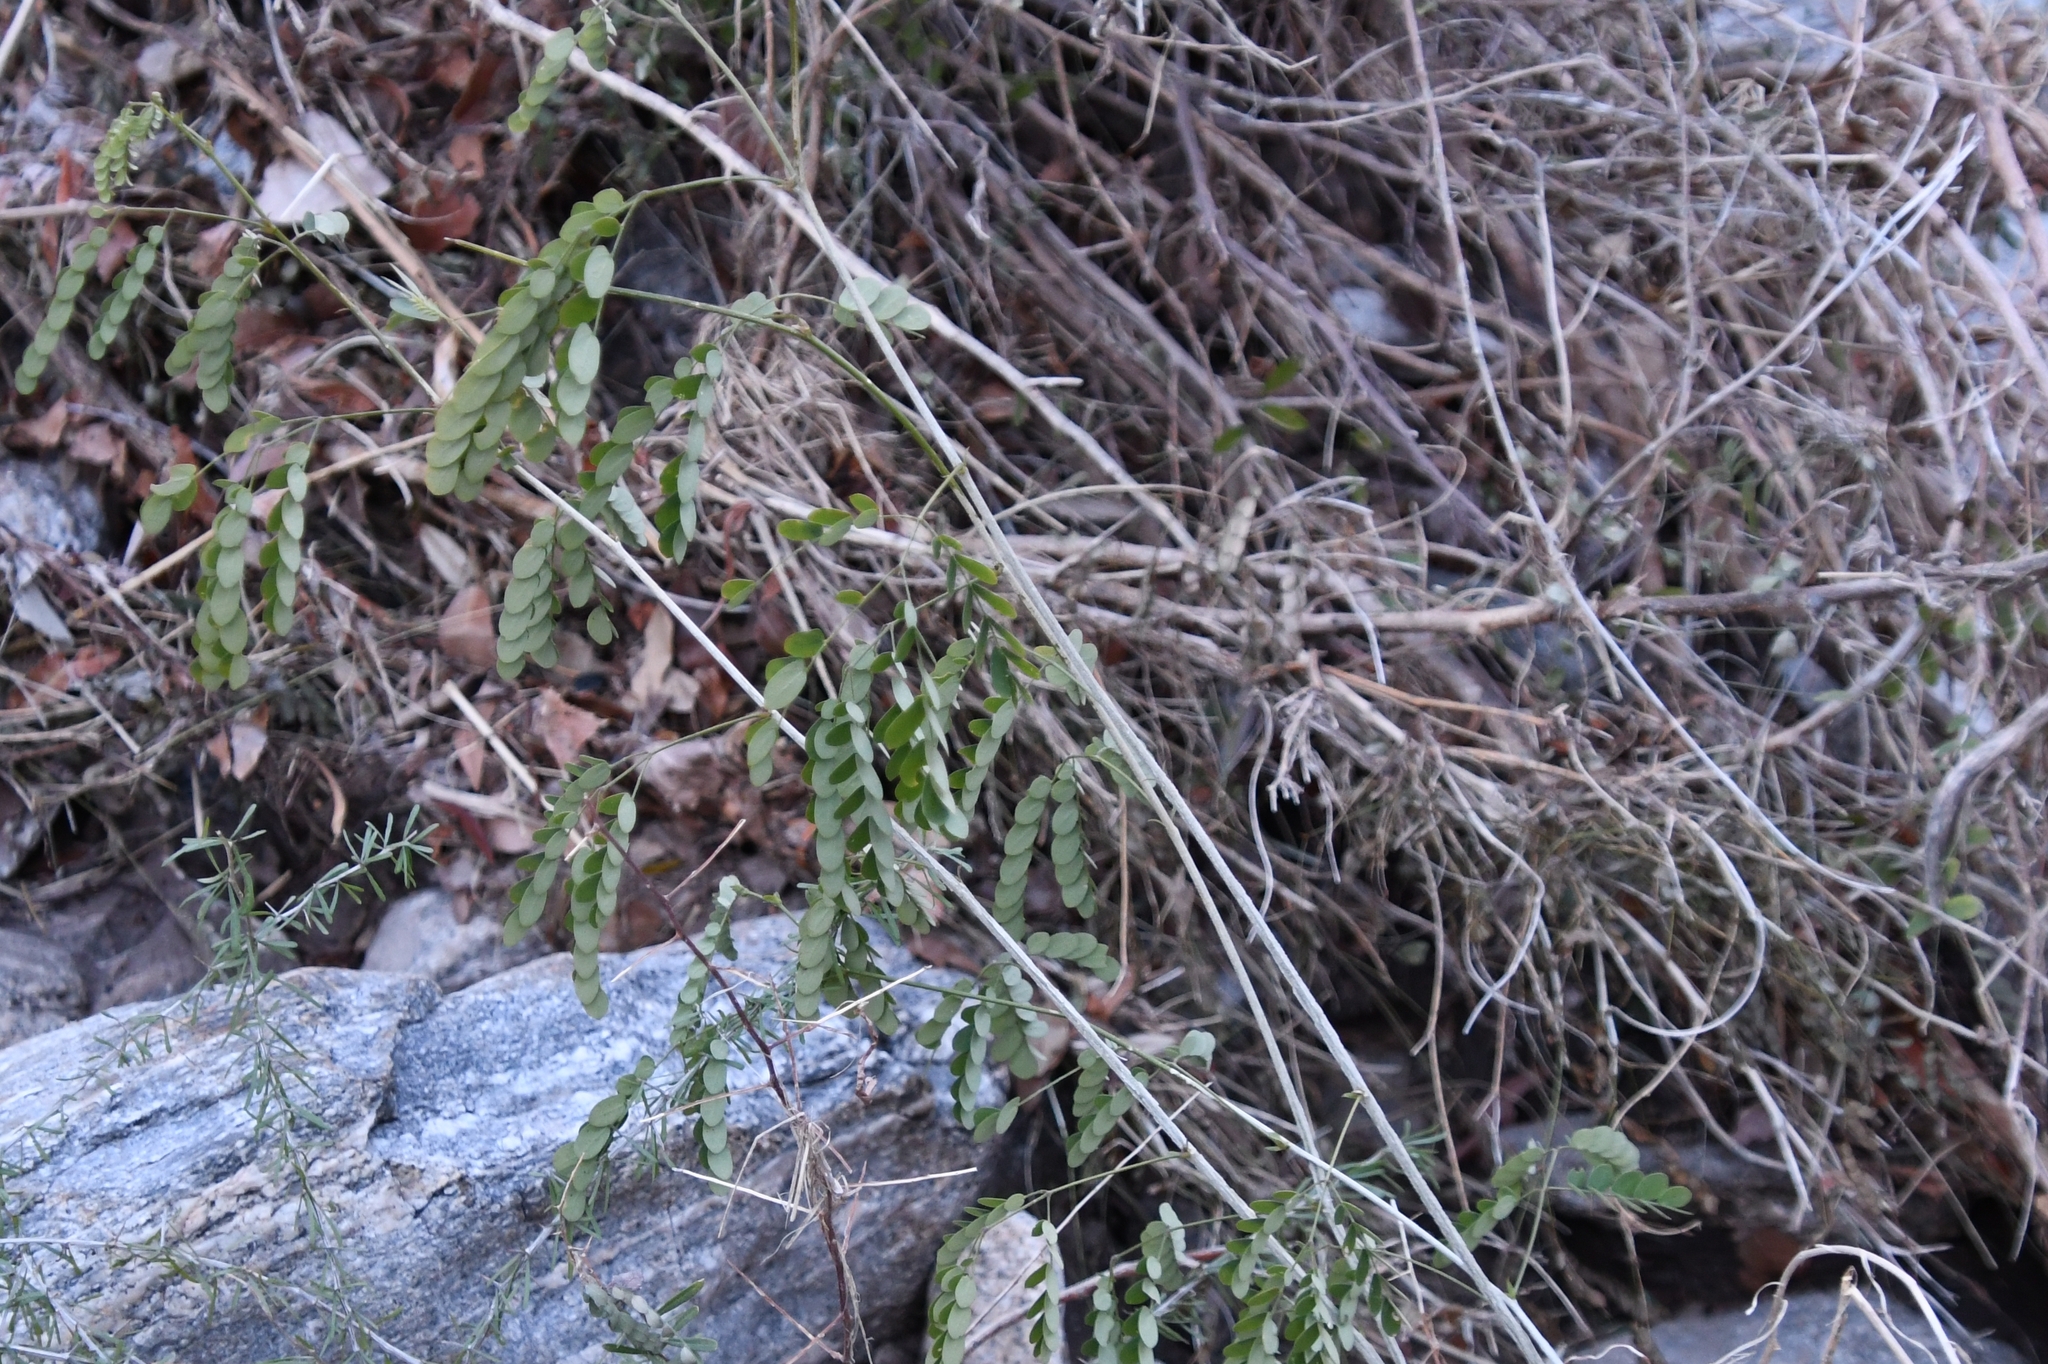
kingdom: Plantae
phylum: Tracheophyta
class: Magnoliopsida
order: Fabales
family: Fabaceae
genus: Zapoteca
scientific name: Zapoteca formosa
